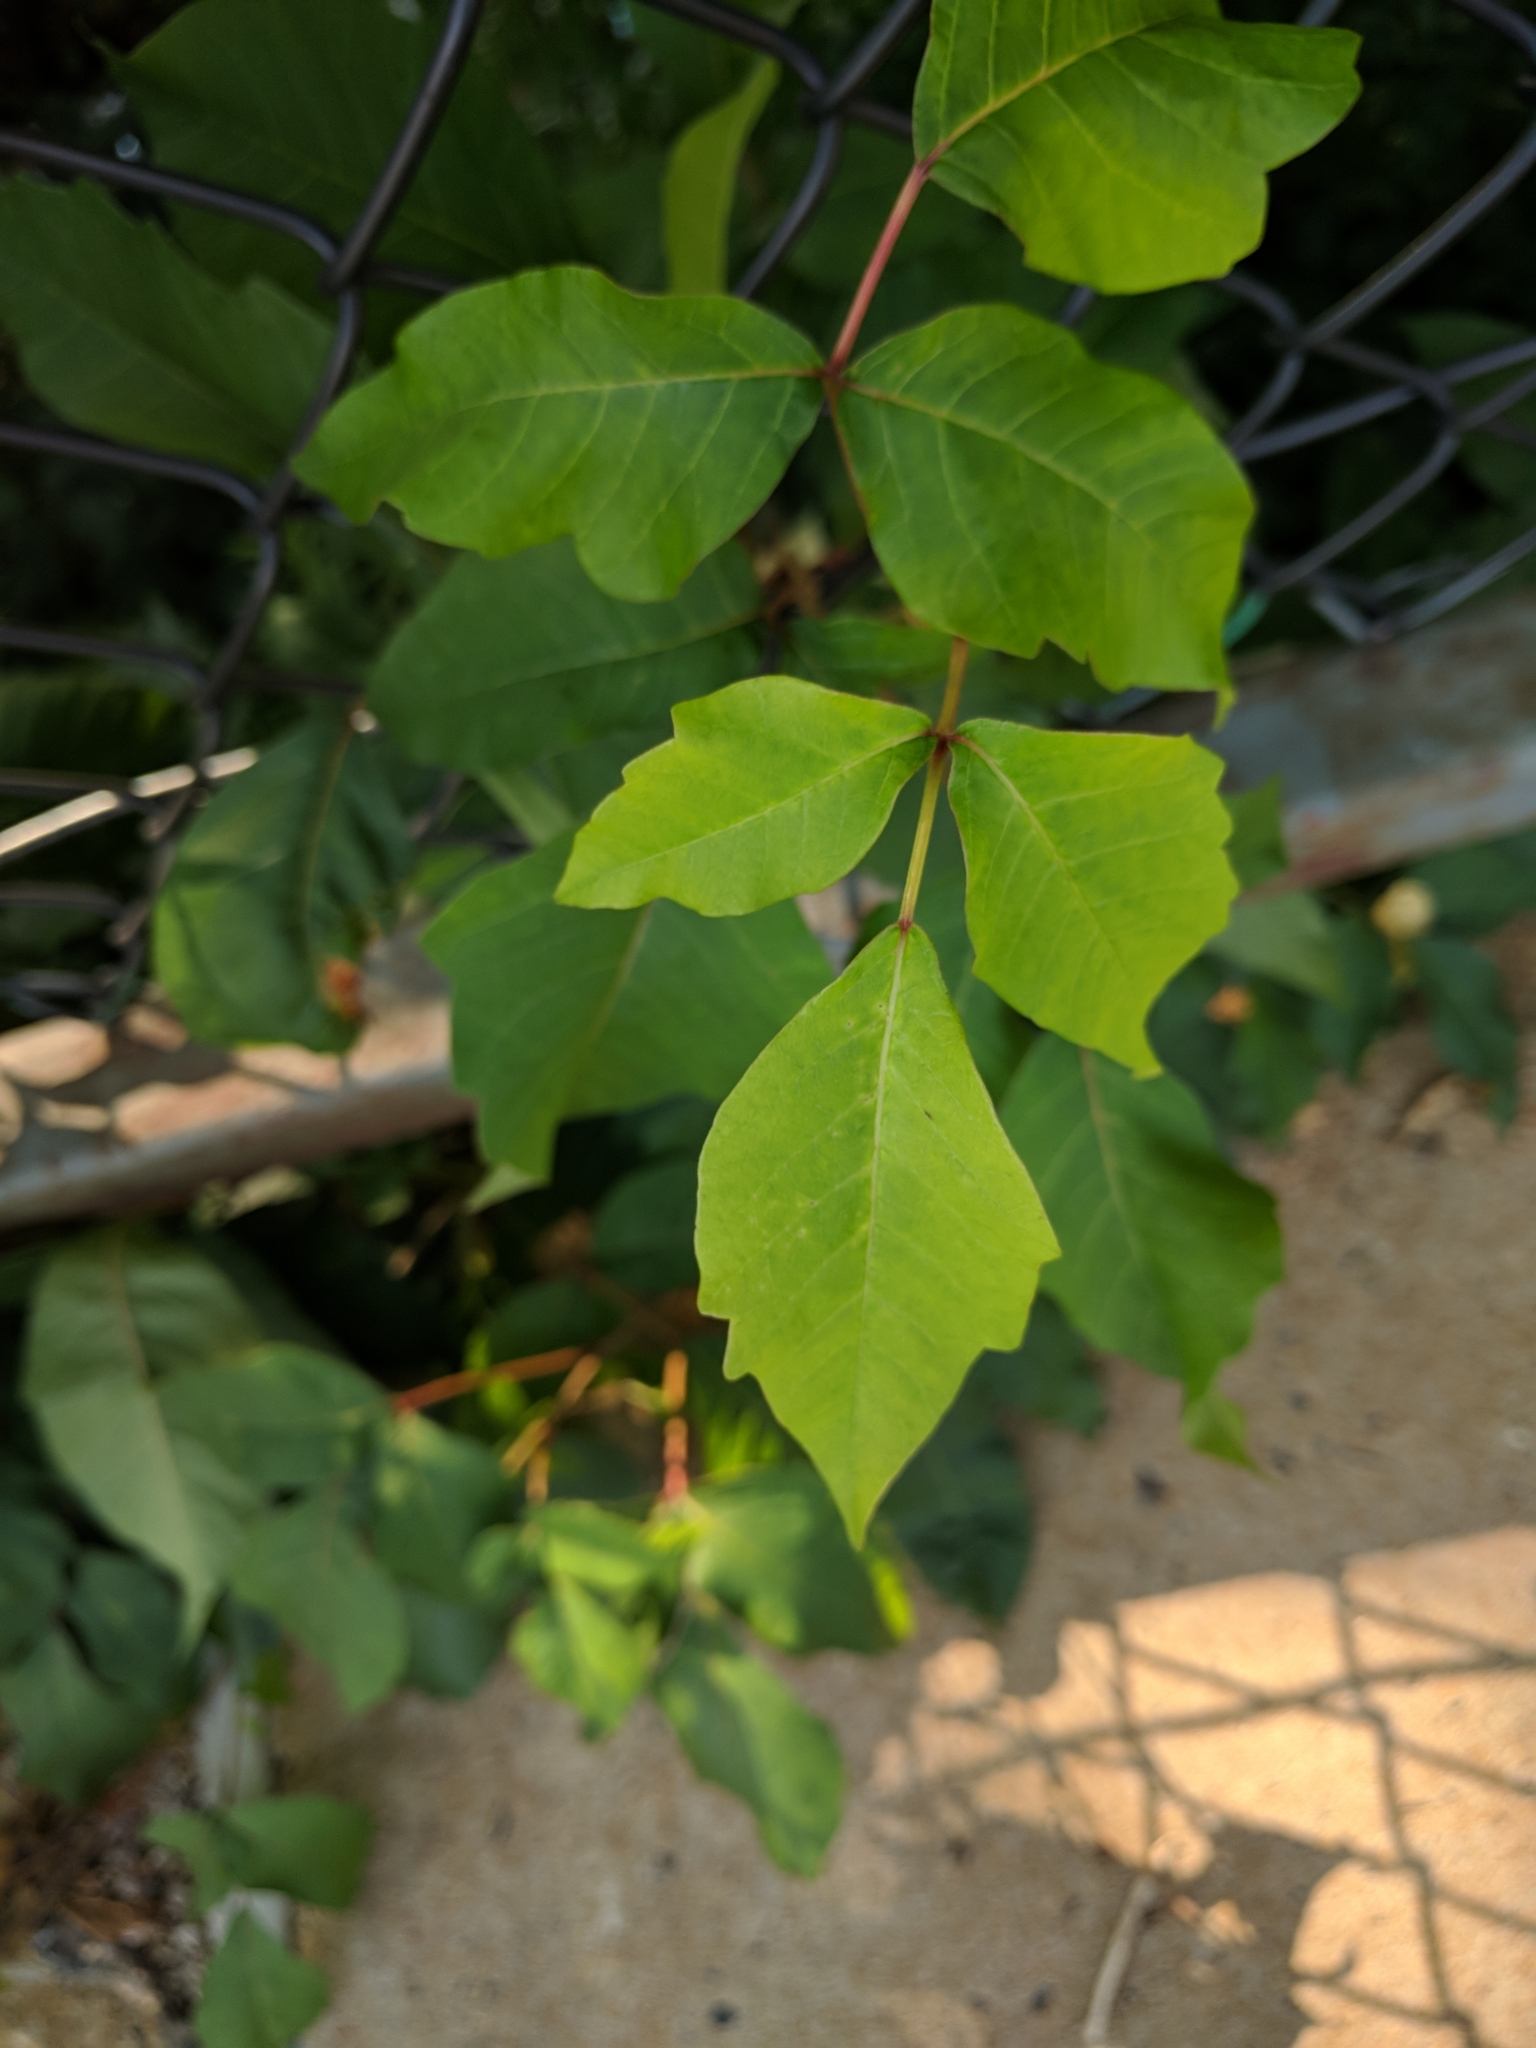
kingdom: Plantae
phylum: Tracheophyta
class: Magnoliopsida
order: Sapindales
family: Anacardiaceae
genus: Toxicodendron
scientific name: Toxicodendron radicans
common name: Poison ivy
